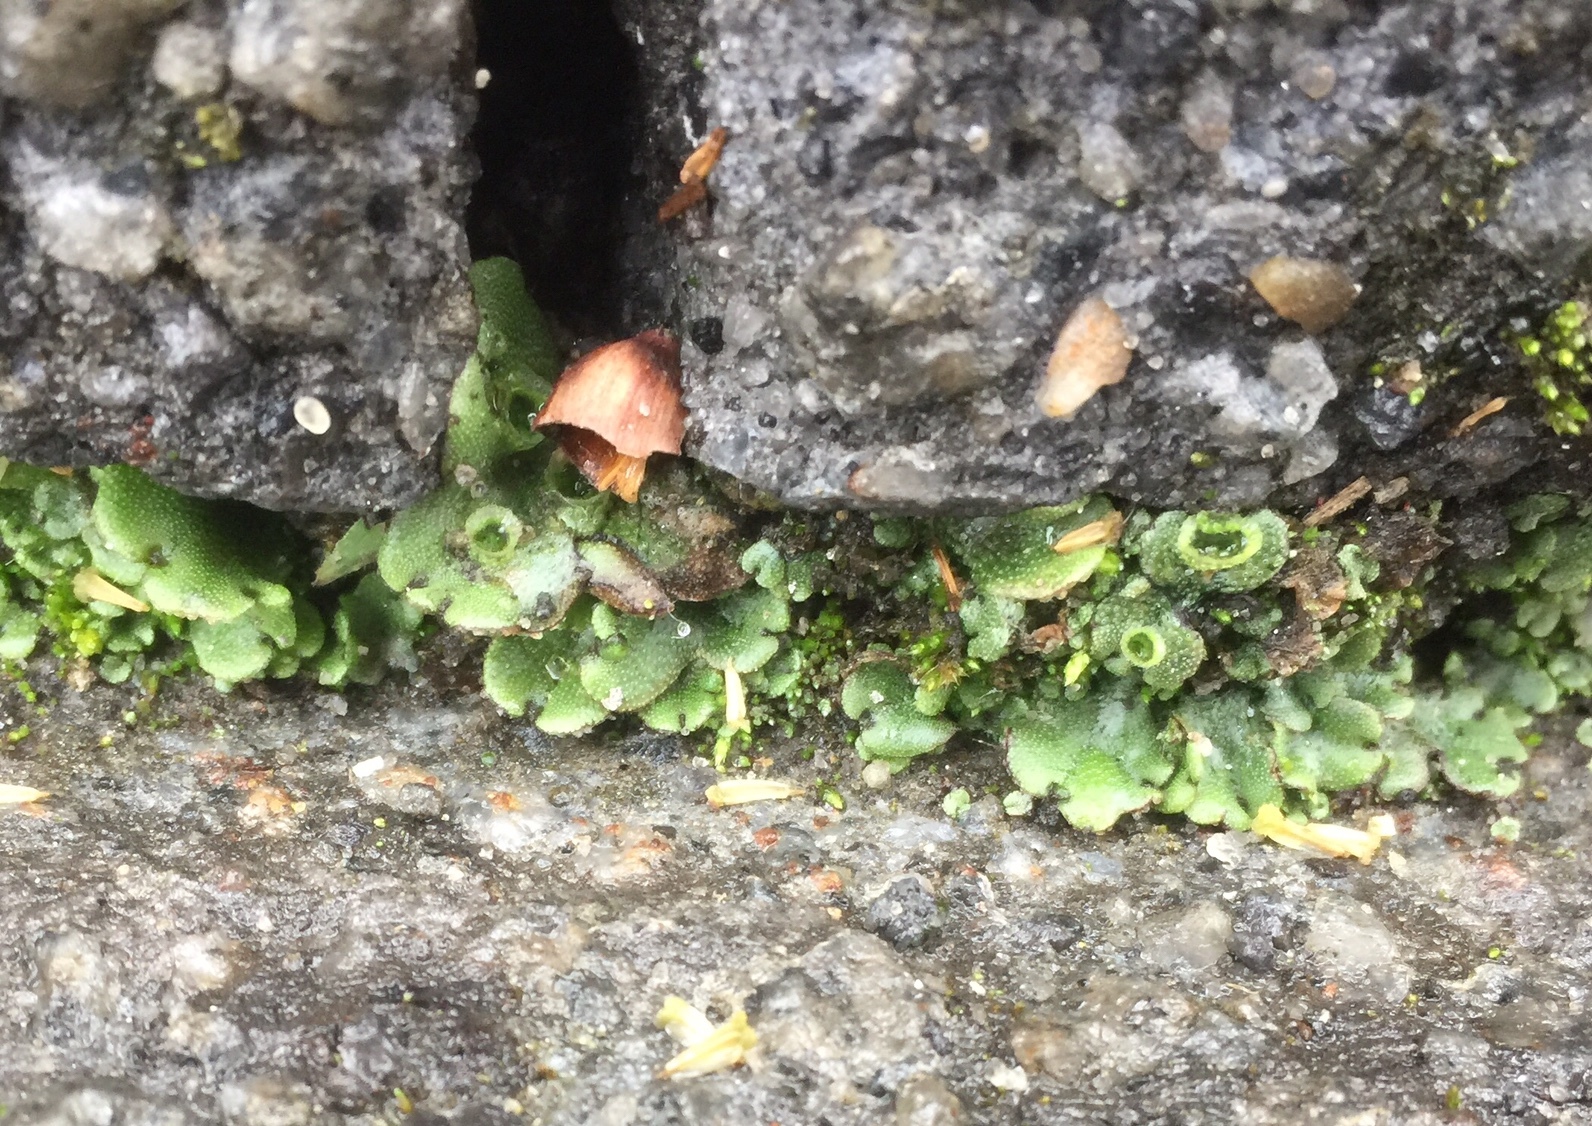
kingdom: Plantae
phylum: Marchantiophyta
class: Marchantiopsida
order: Marchantiales
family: Marchantiaceae
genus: Marchantia
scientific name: Marchantia polymorpha
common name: Common liverwort
